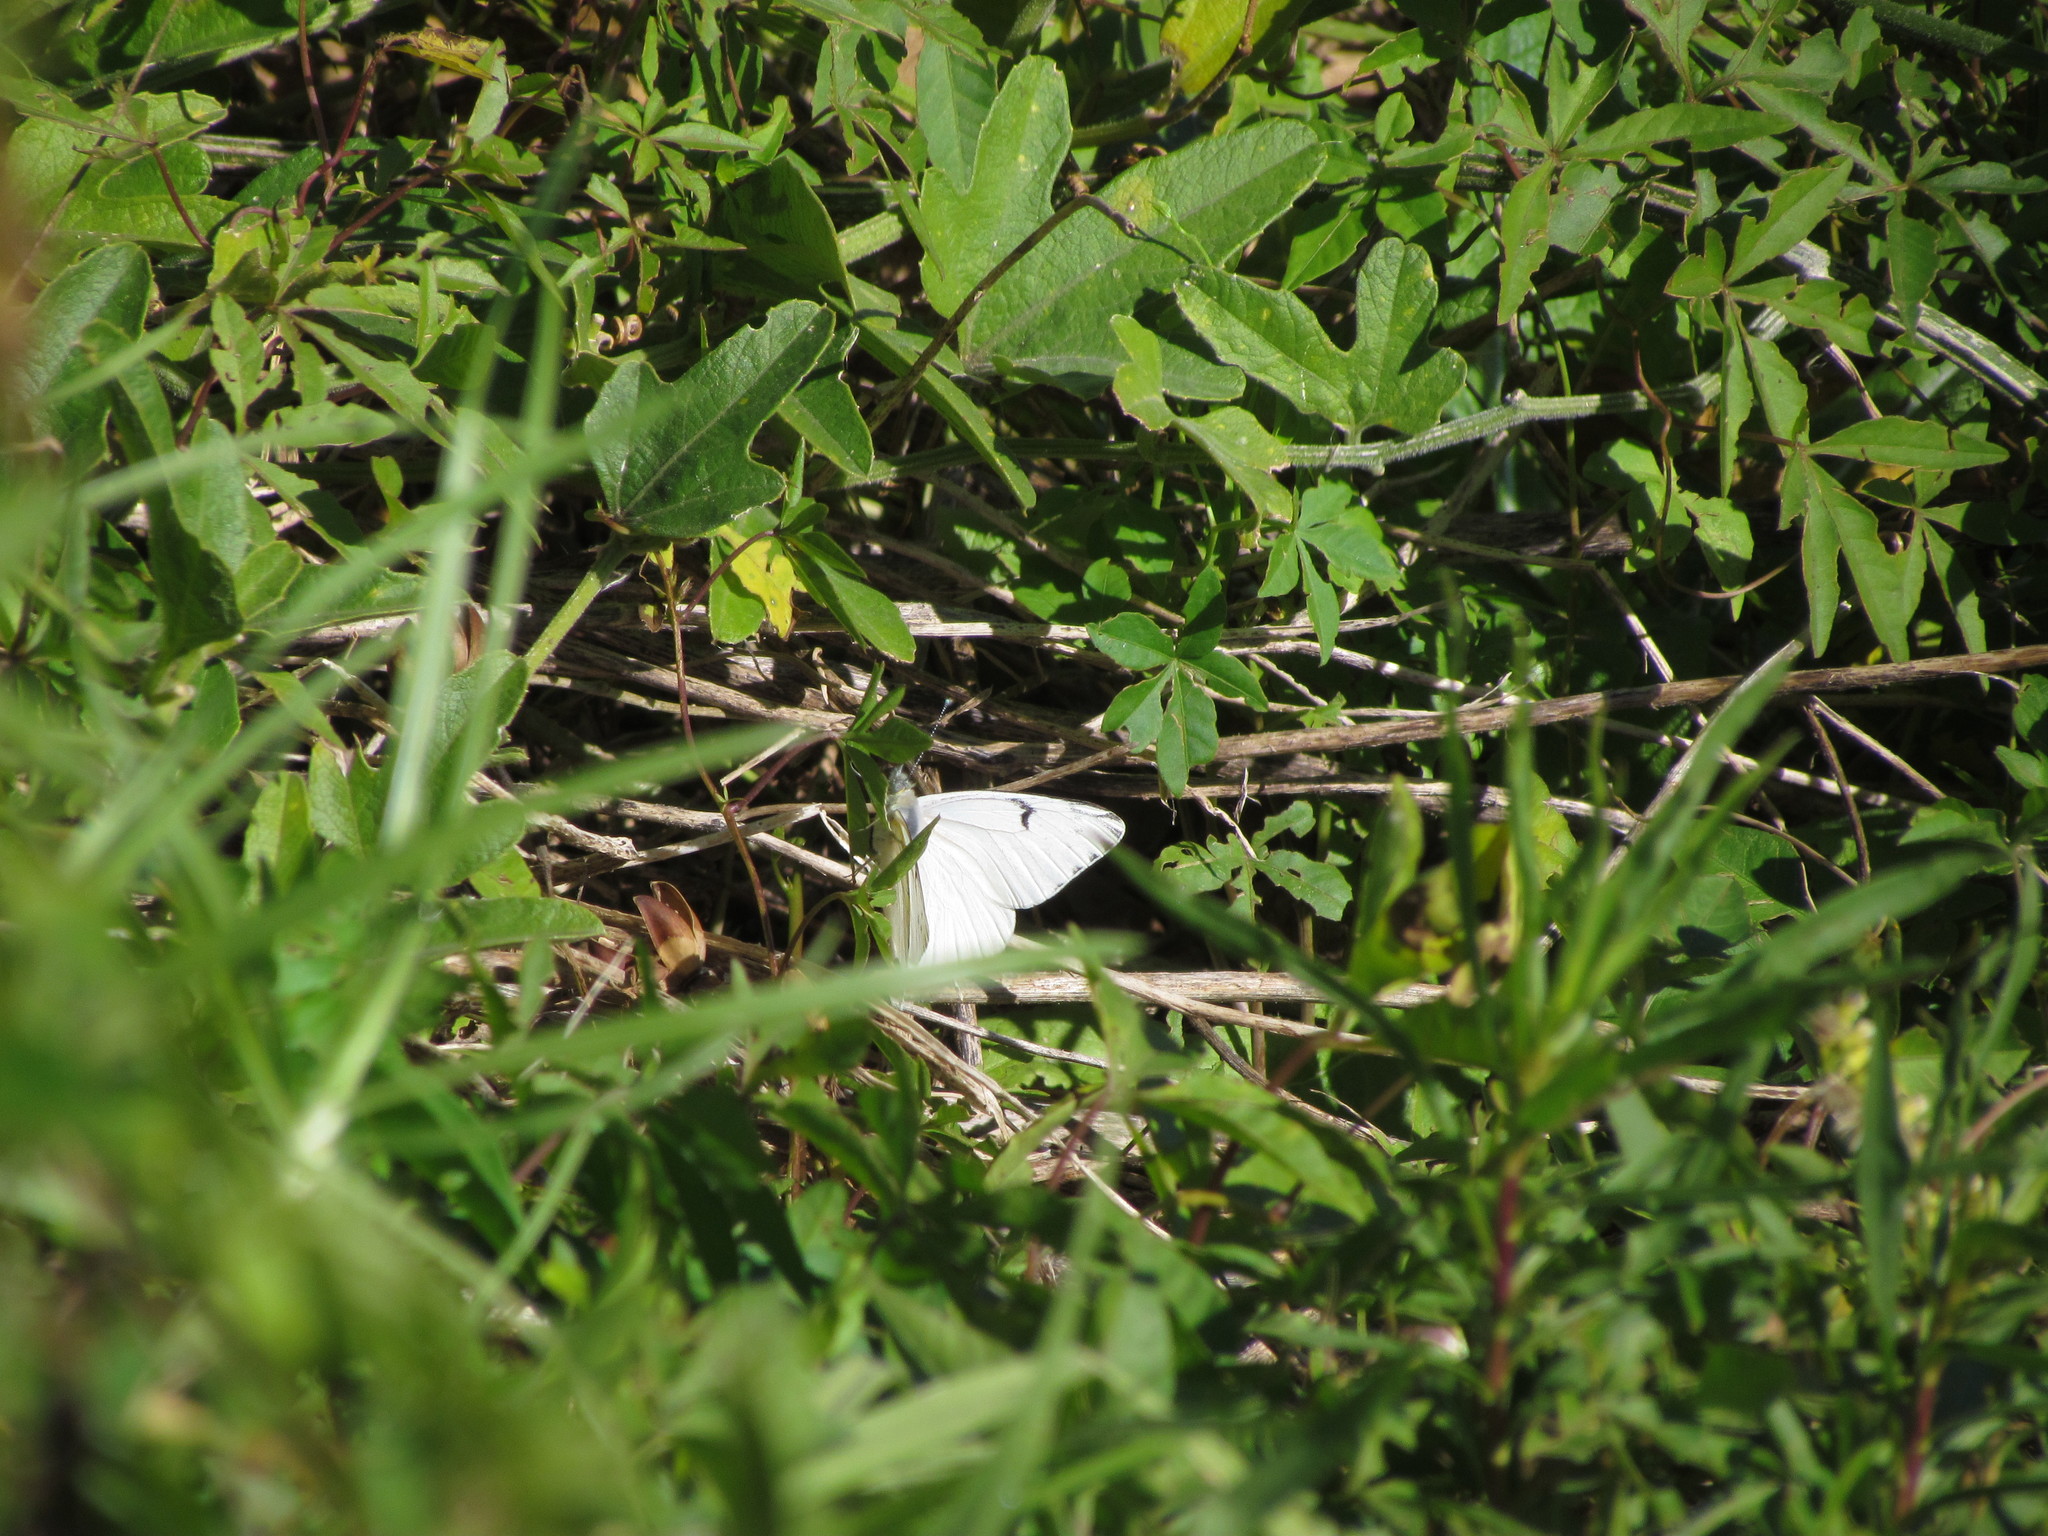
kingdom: Animalia
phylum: Arthropoda
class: Insecta
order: Lepidoptera
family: Pieridae
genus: Tatochila
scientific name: Tatochila mercedis
